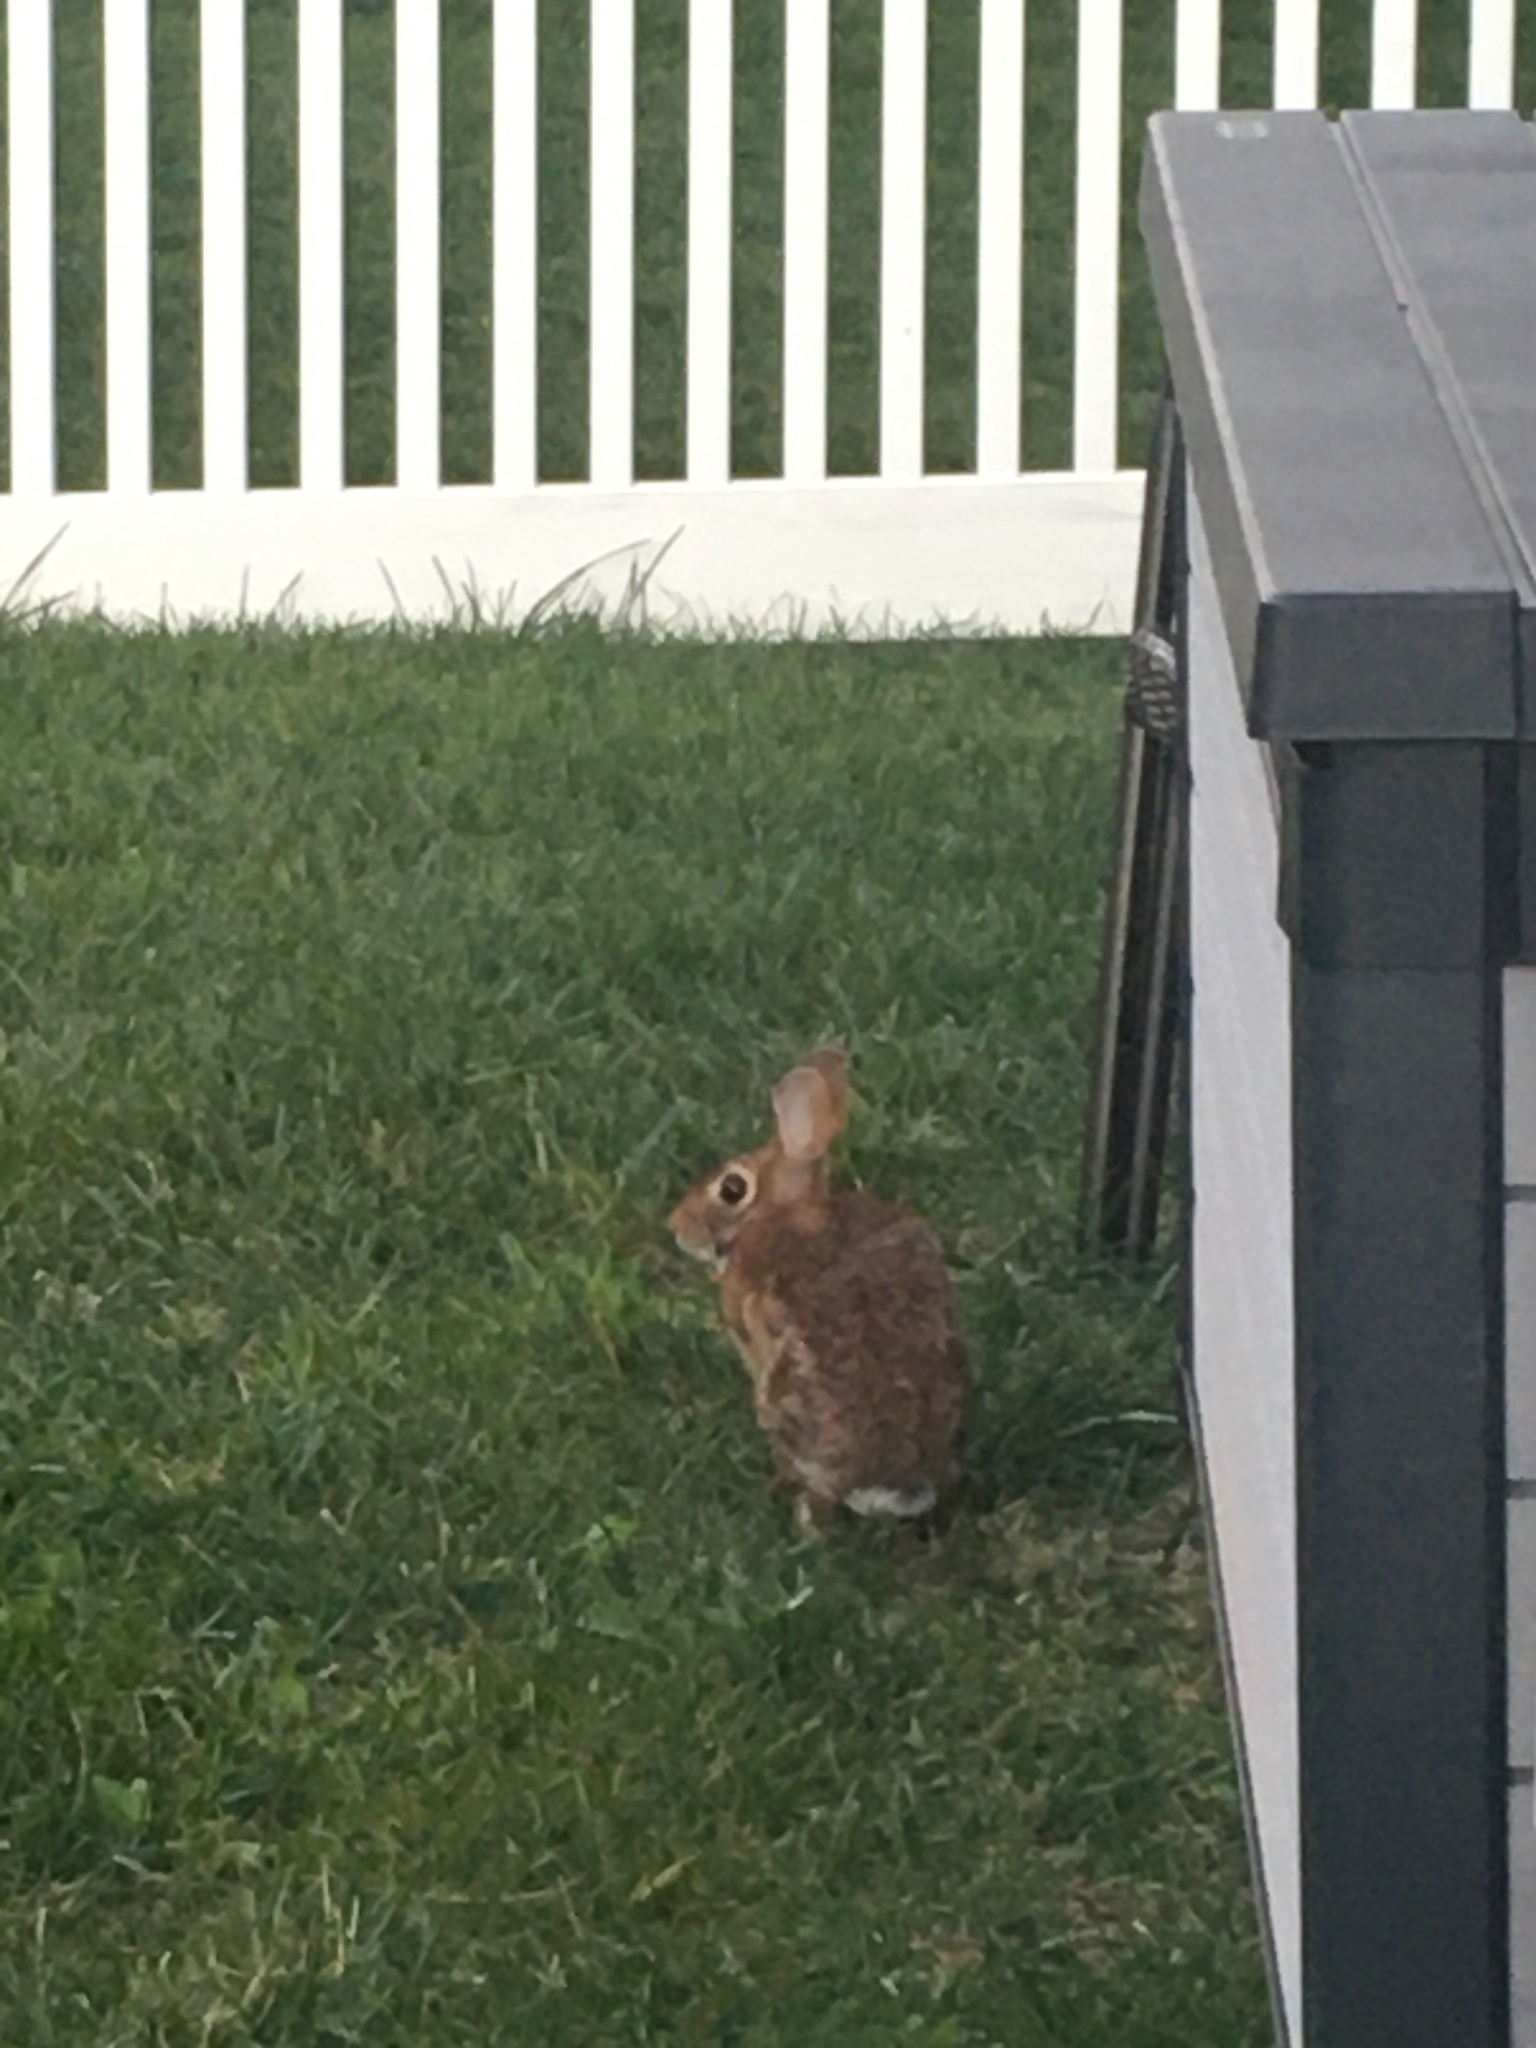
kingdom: Animalia
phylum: Chordata
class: Mammalia
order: Lagomorpha
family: Leporidae
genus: Sylvilagus
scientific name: Sylvilagus floridanus
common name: Eastern cottontail
